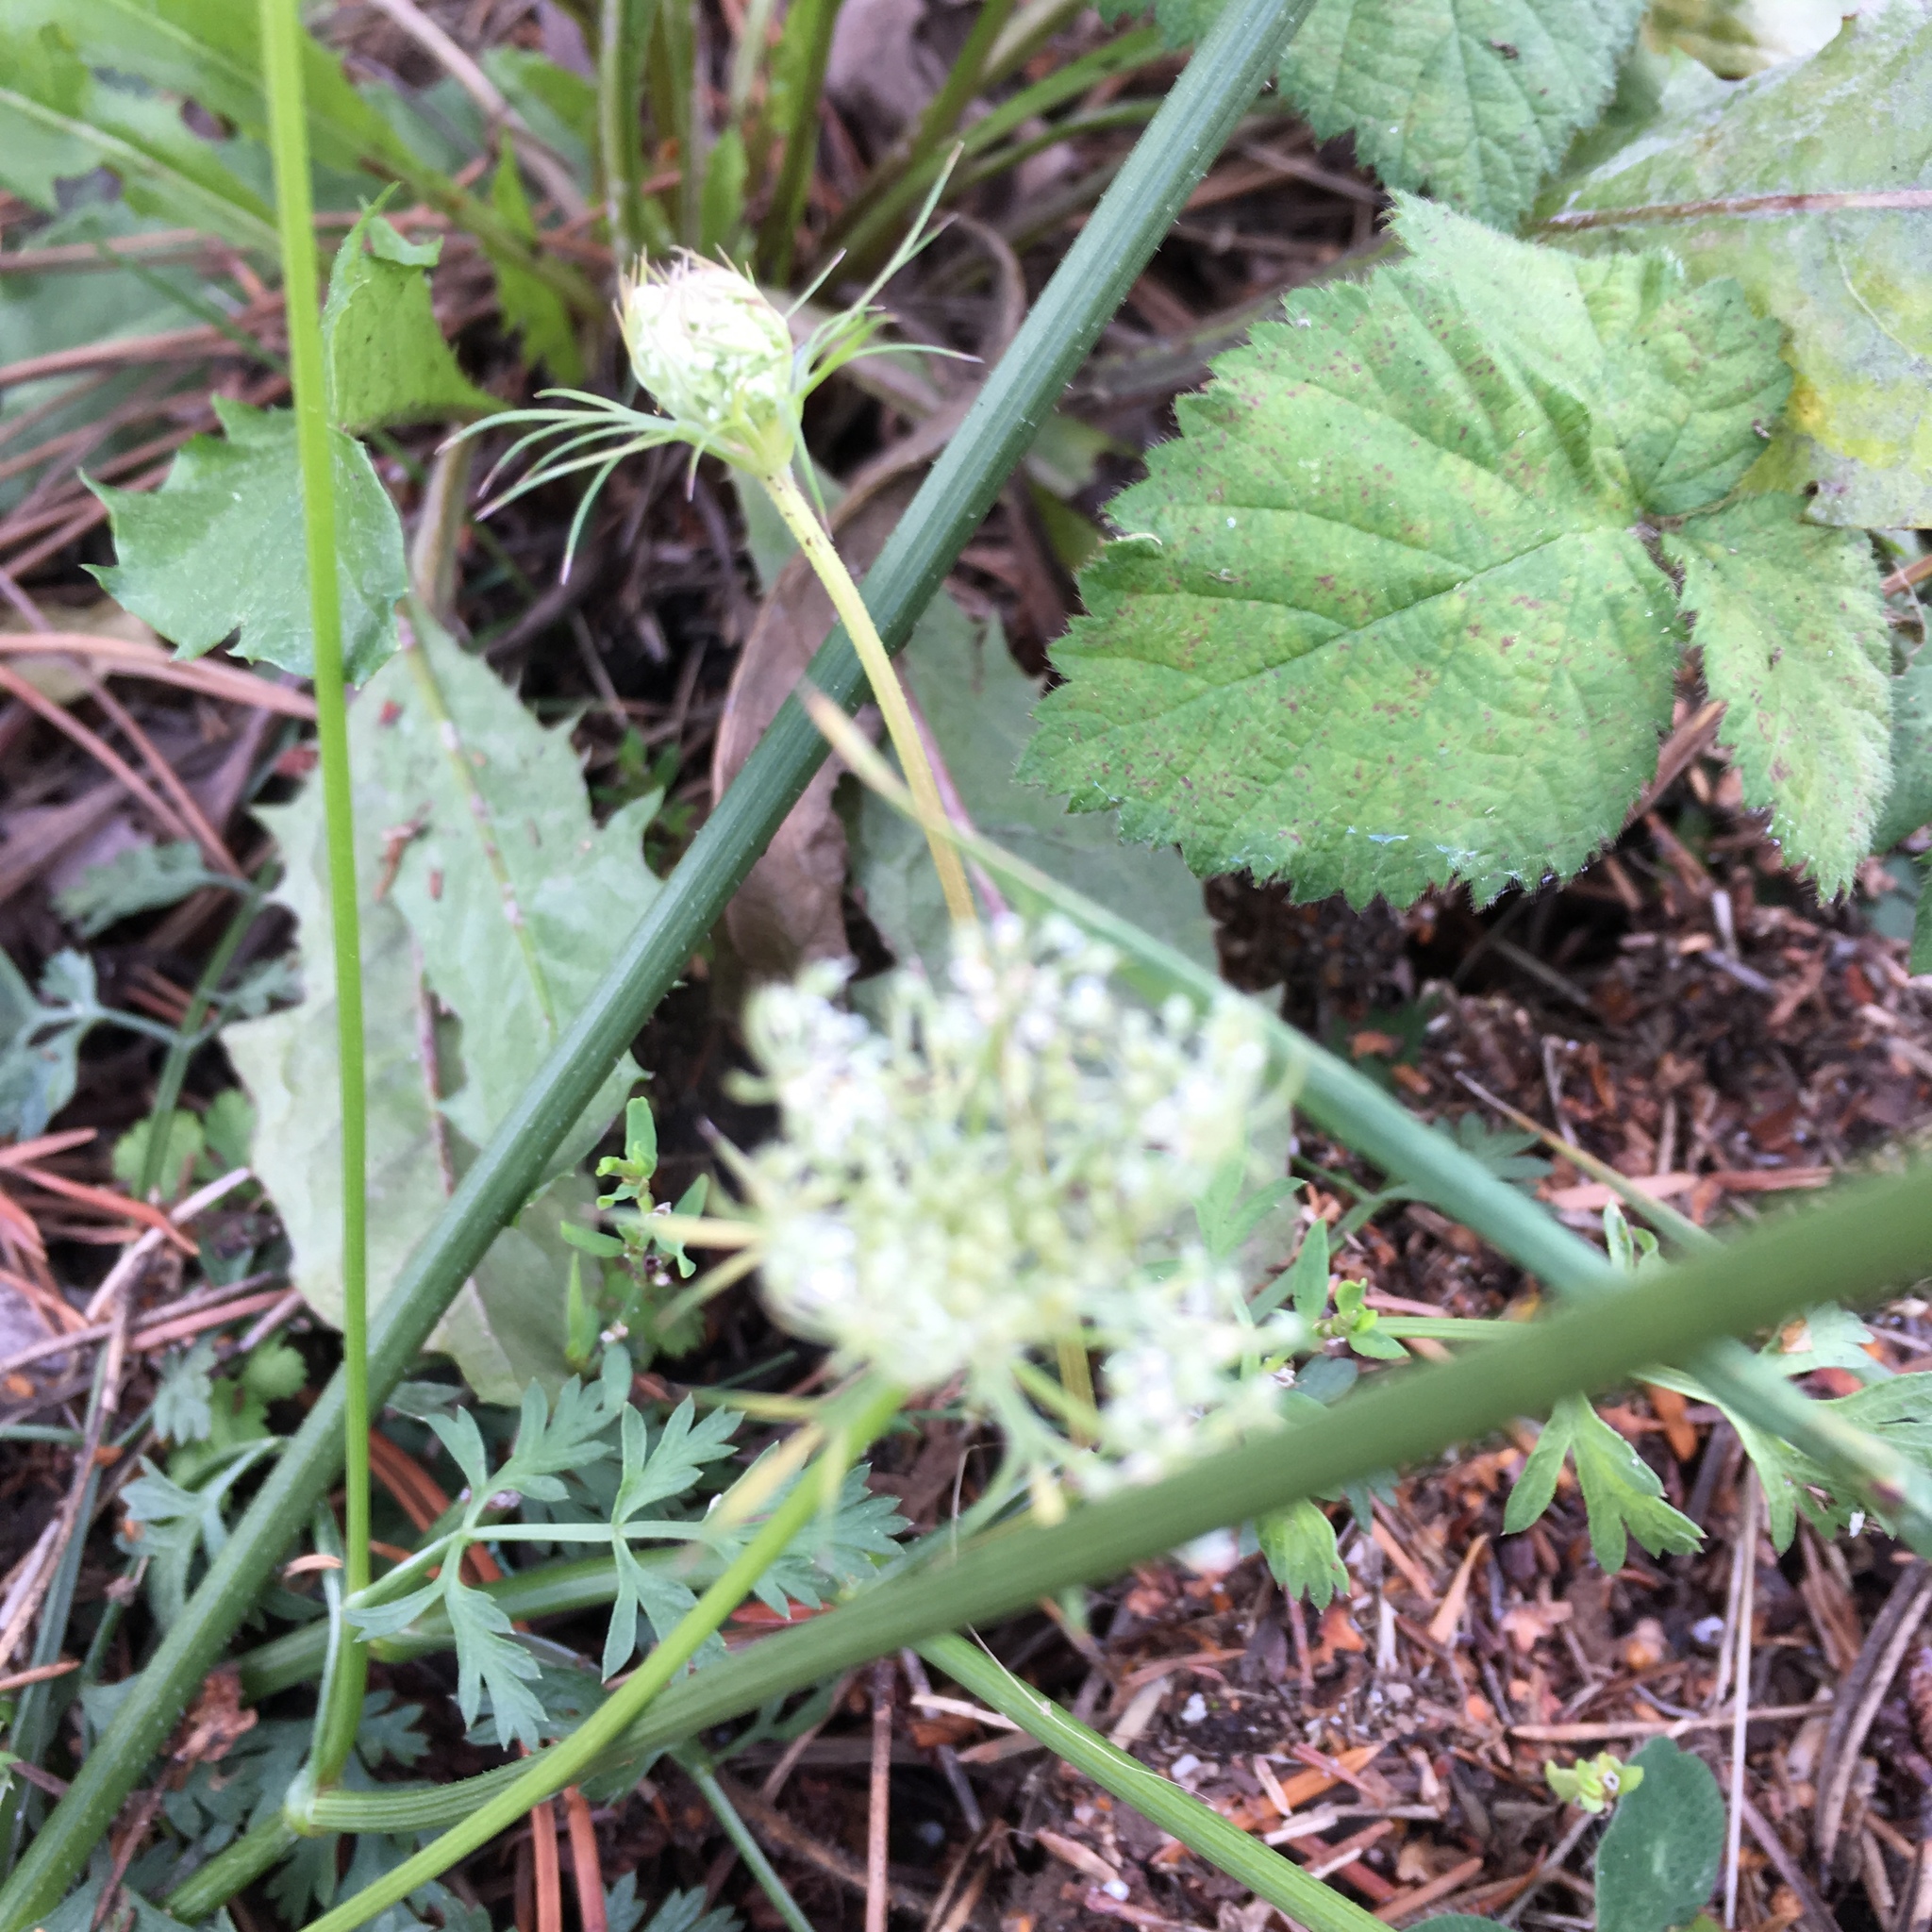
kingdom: Plantae
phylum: Tracheophyta
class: Magnoliopsida
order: Apiales
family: Apiaceae
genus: Daucus
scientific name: Daucus carota
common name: Wild carrot
